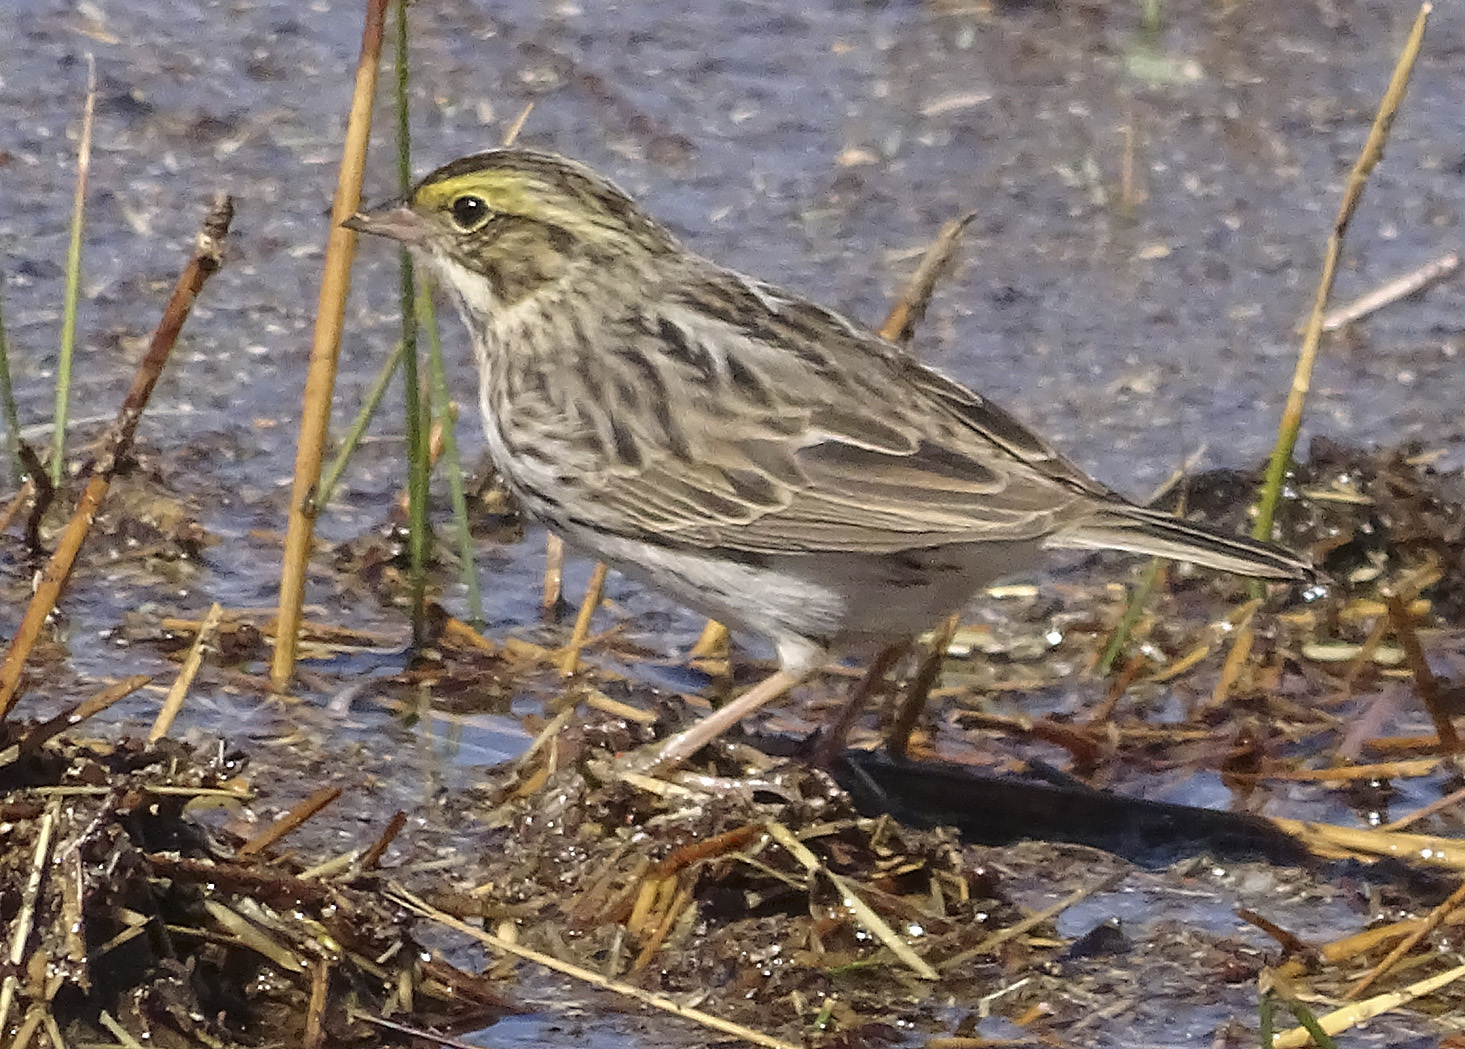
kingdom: Animalia
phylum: Chordata
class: Aves
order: Passeriformes
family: Passerellidae
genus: Passerculus
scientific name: Passerculus sandwichensis
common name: Savannah sparrow
